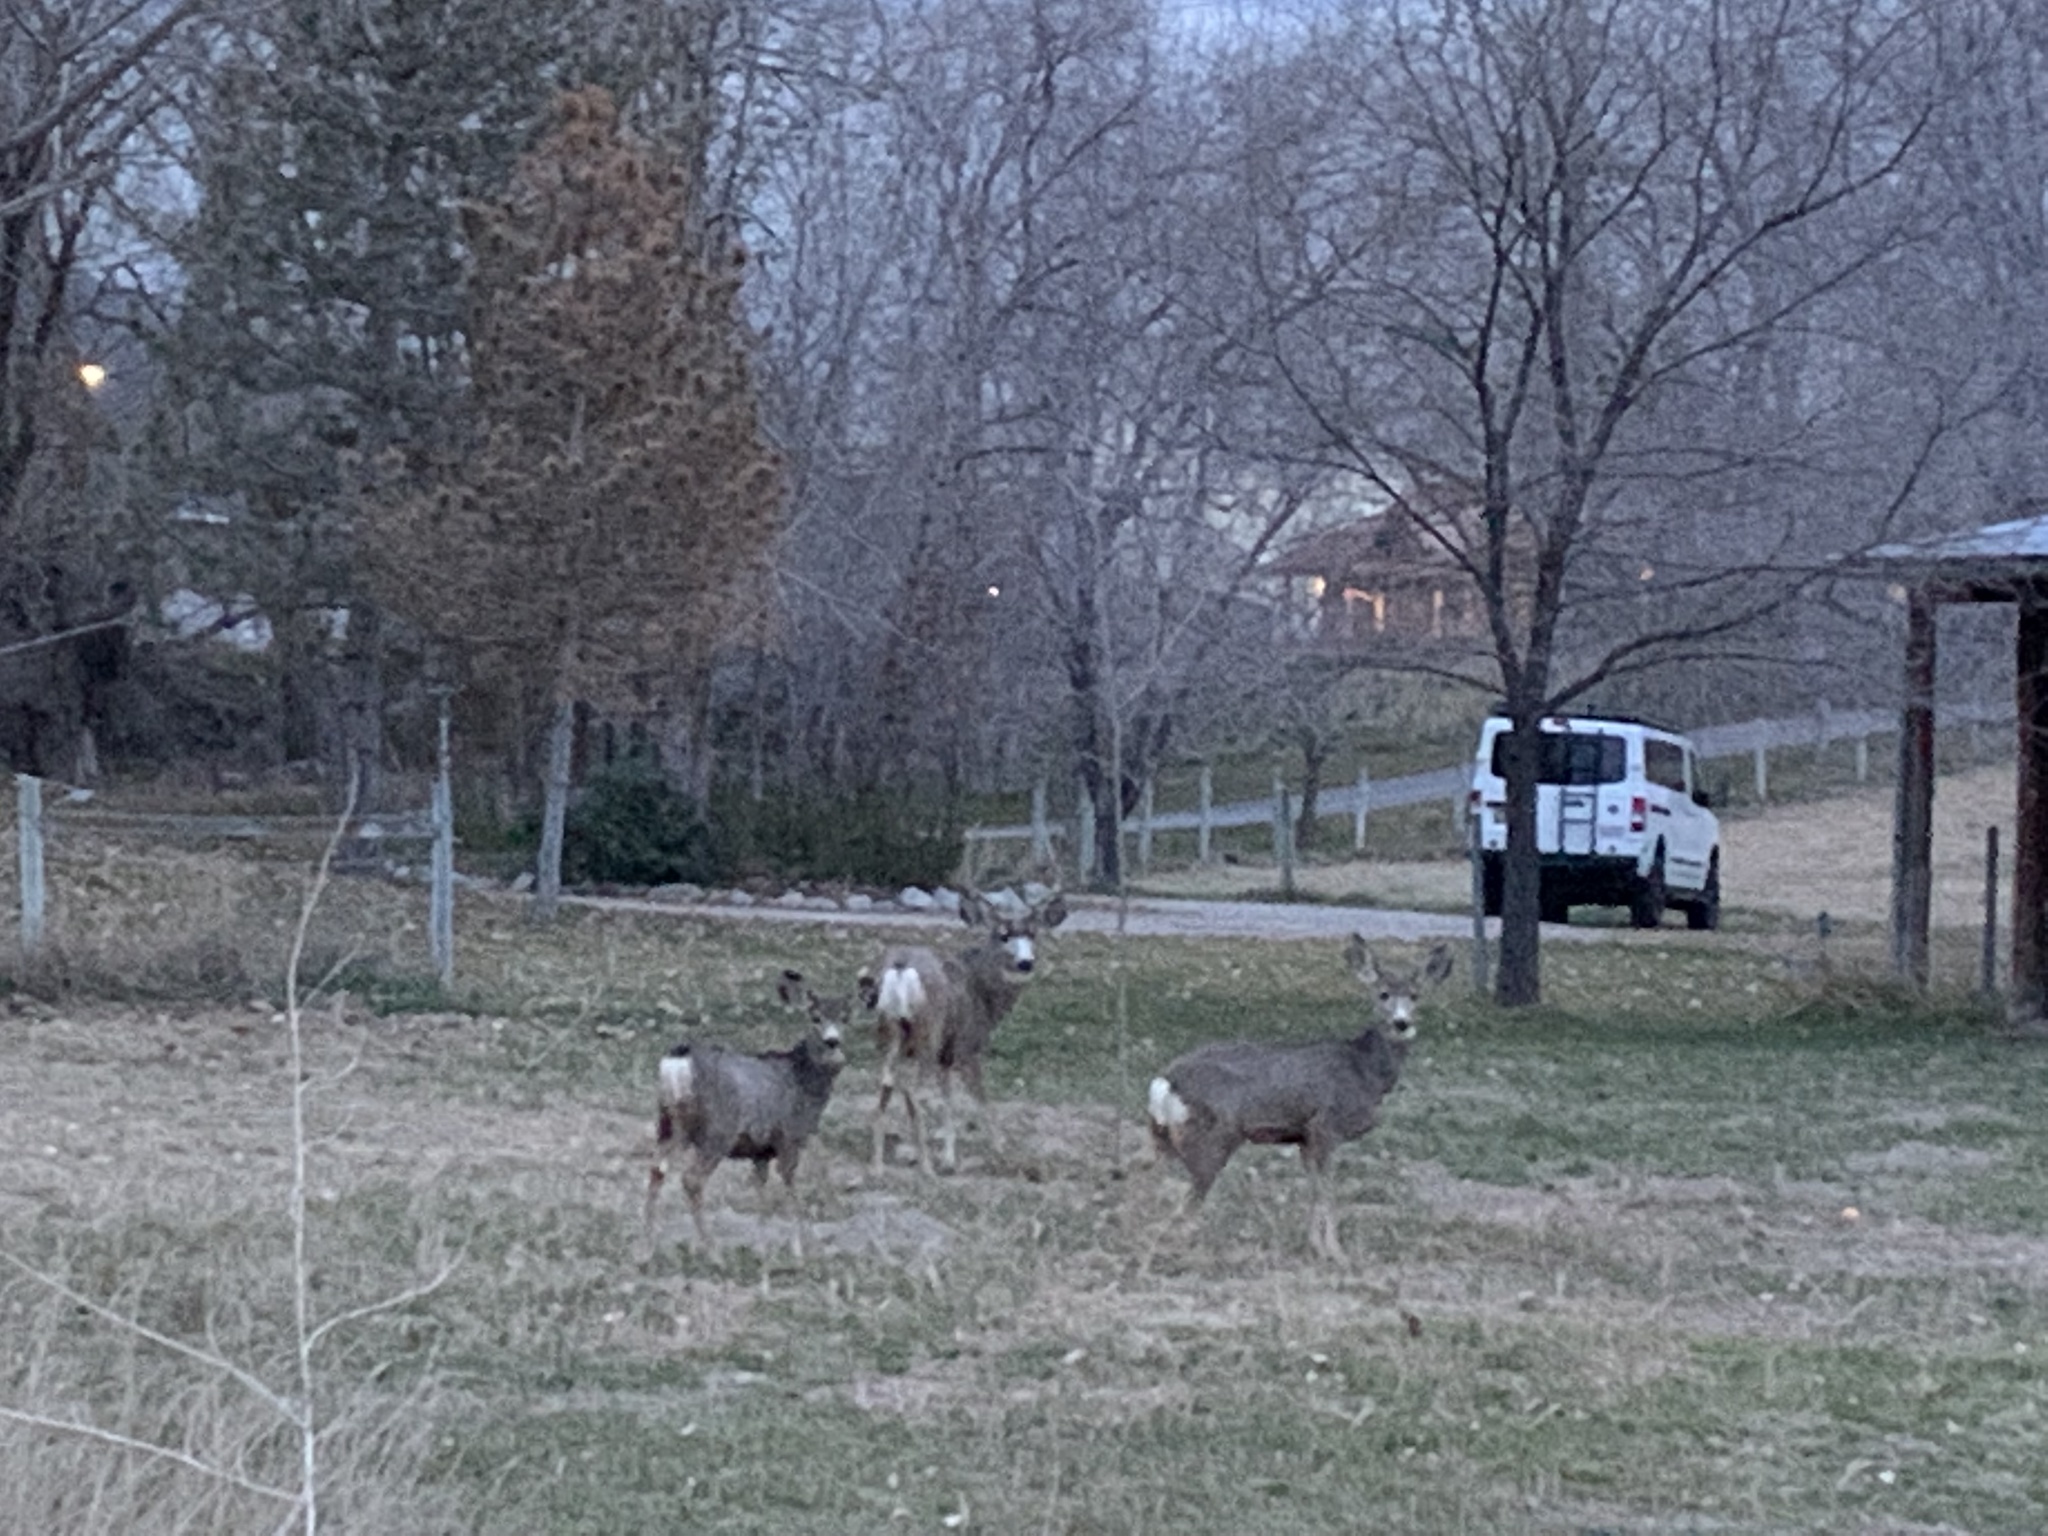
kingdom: Animalia
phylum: Chordata
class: Mammalia
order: Artiodactyla
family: Cervidae
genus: Odocoileus
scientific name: Odocoileus hemionus
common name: Mule deer
